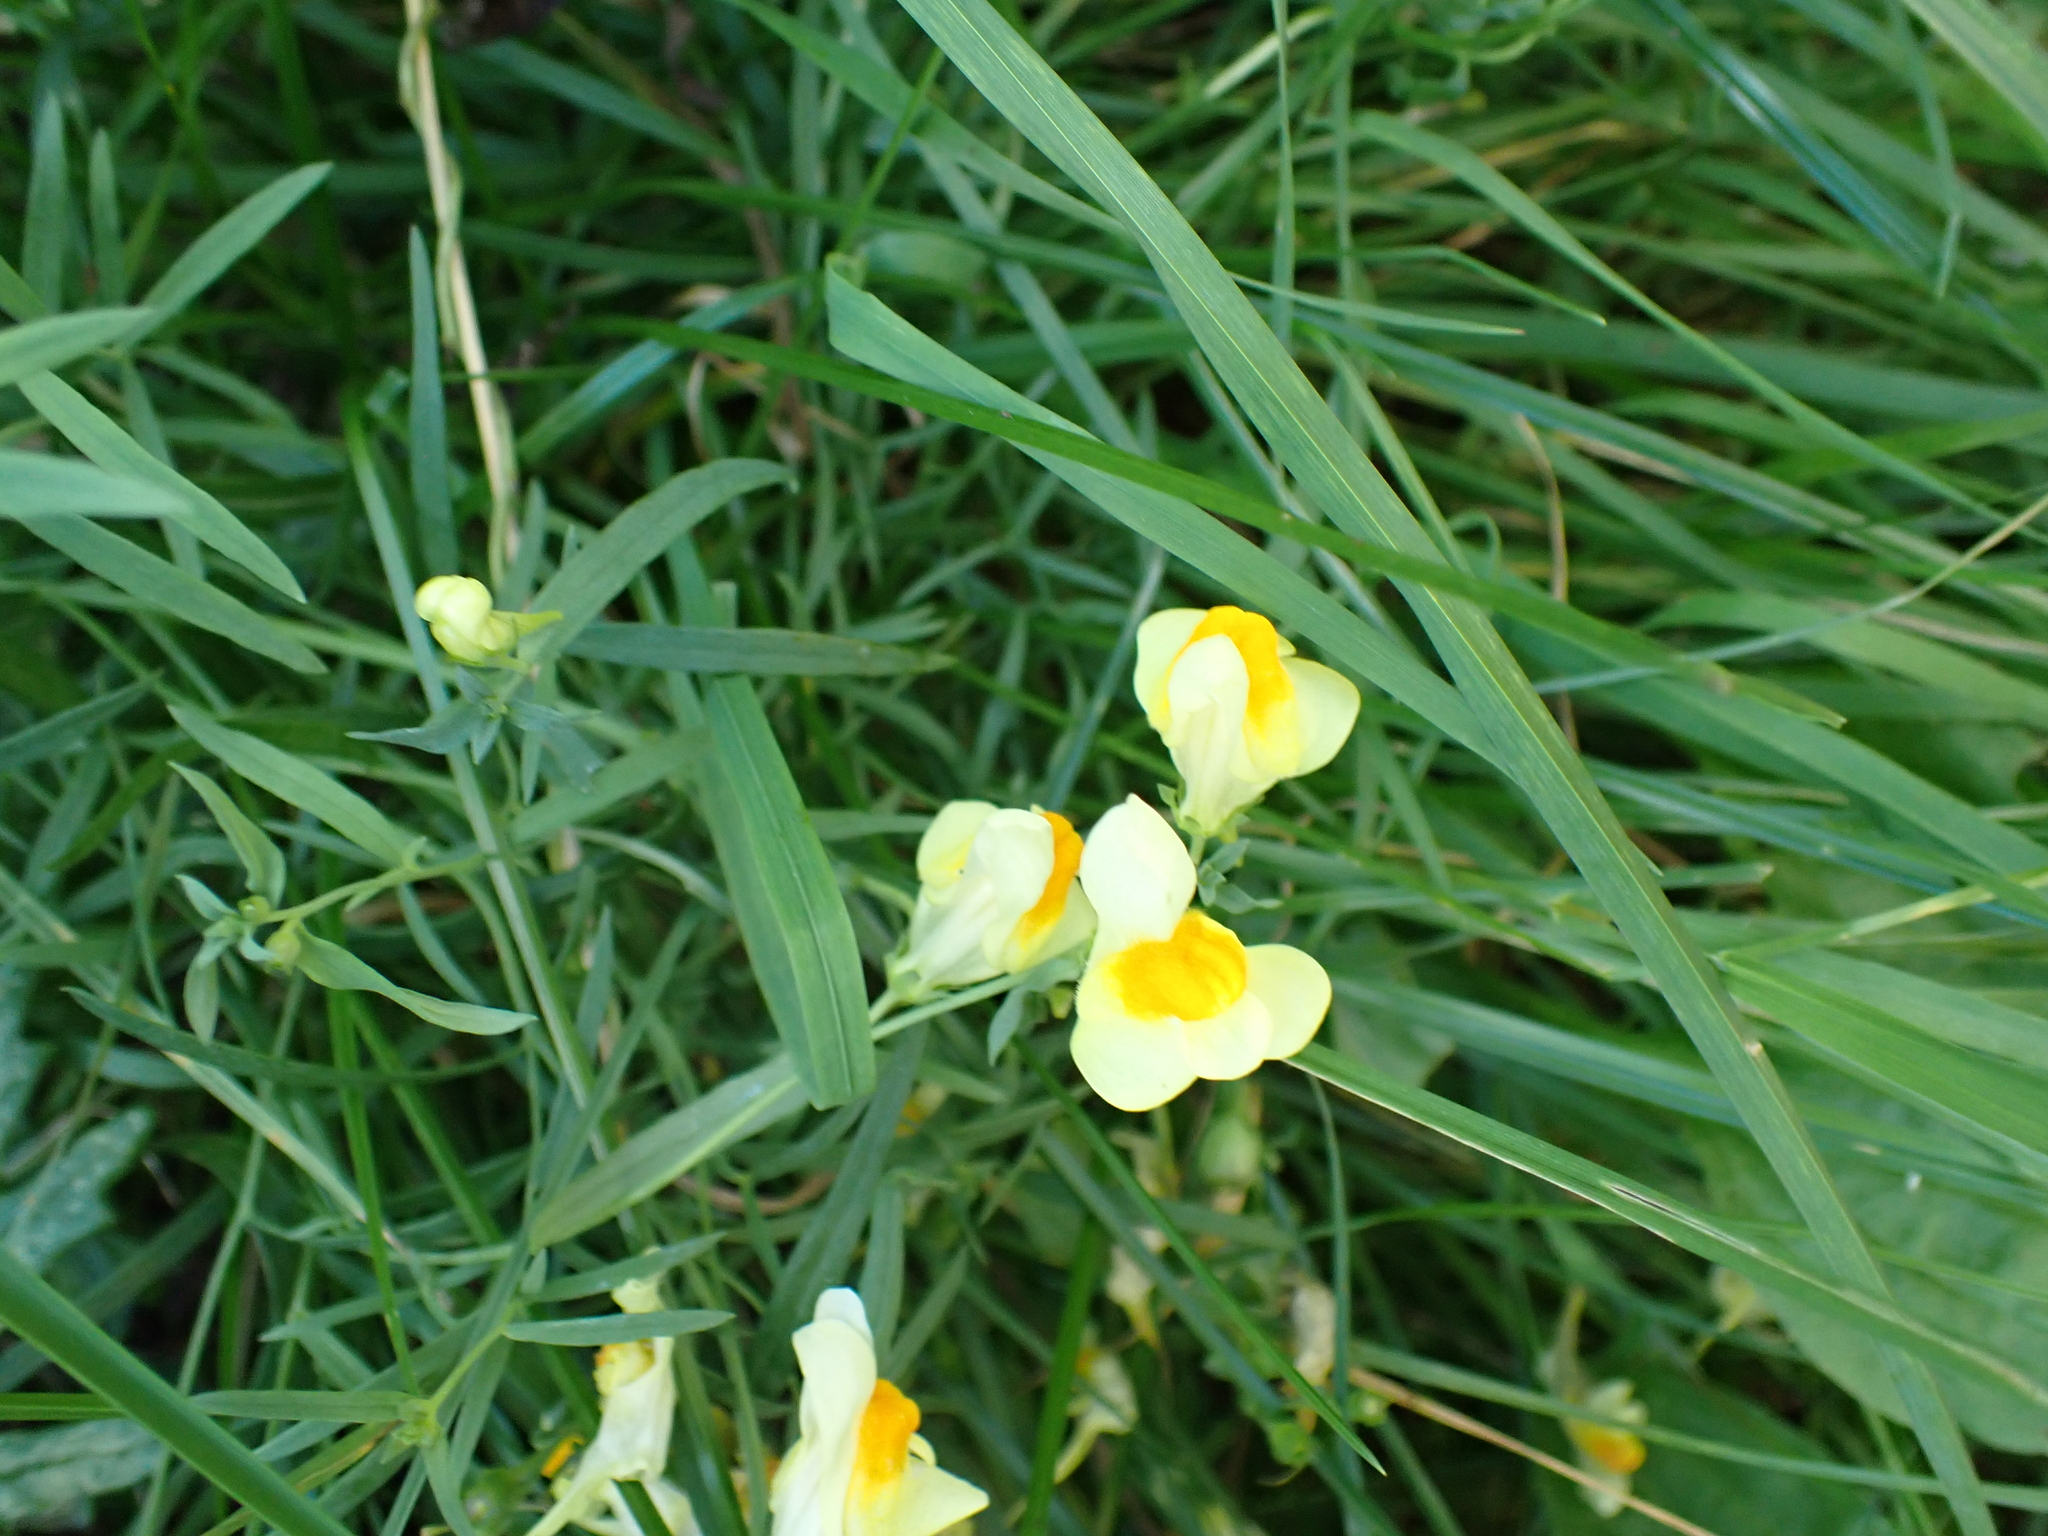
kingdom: Plantae
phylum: Tracheophyta
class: Magnoliopsida
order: Lamiales
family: Plantaginaceae
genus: Linaria
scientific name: Linaria vulgaris
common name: Butter and eggs
